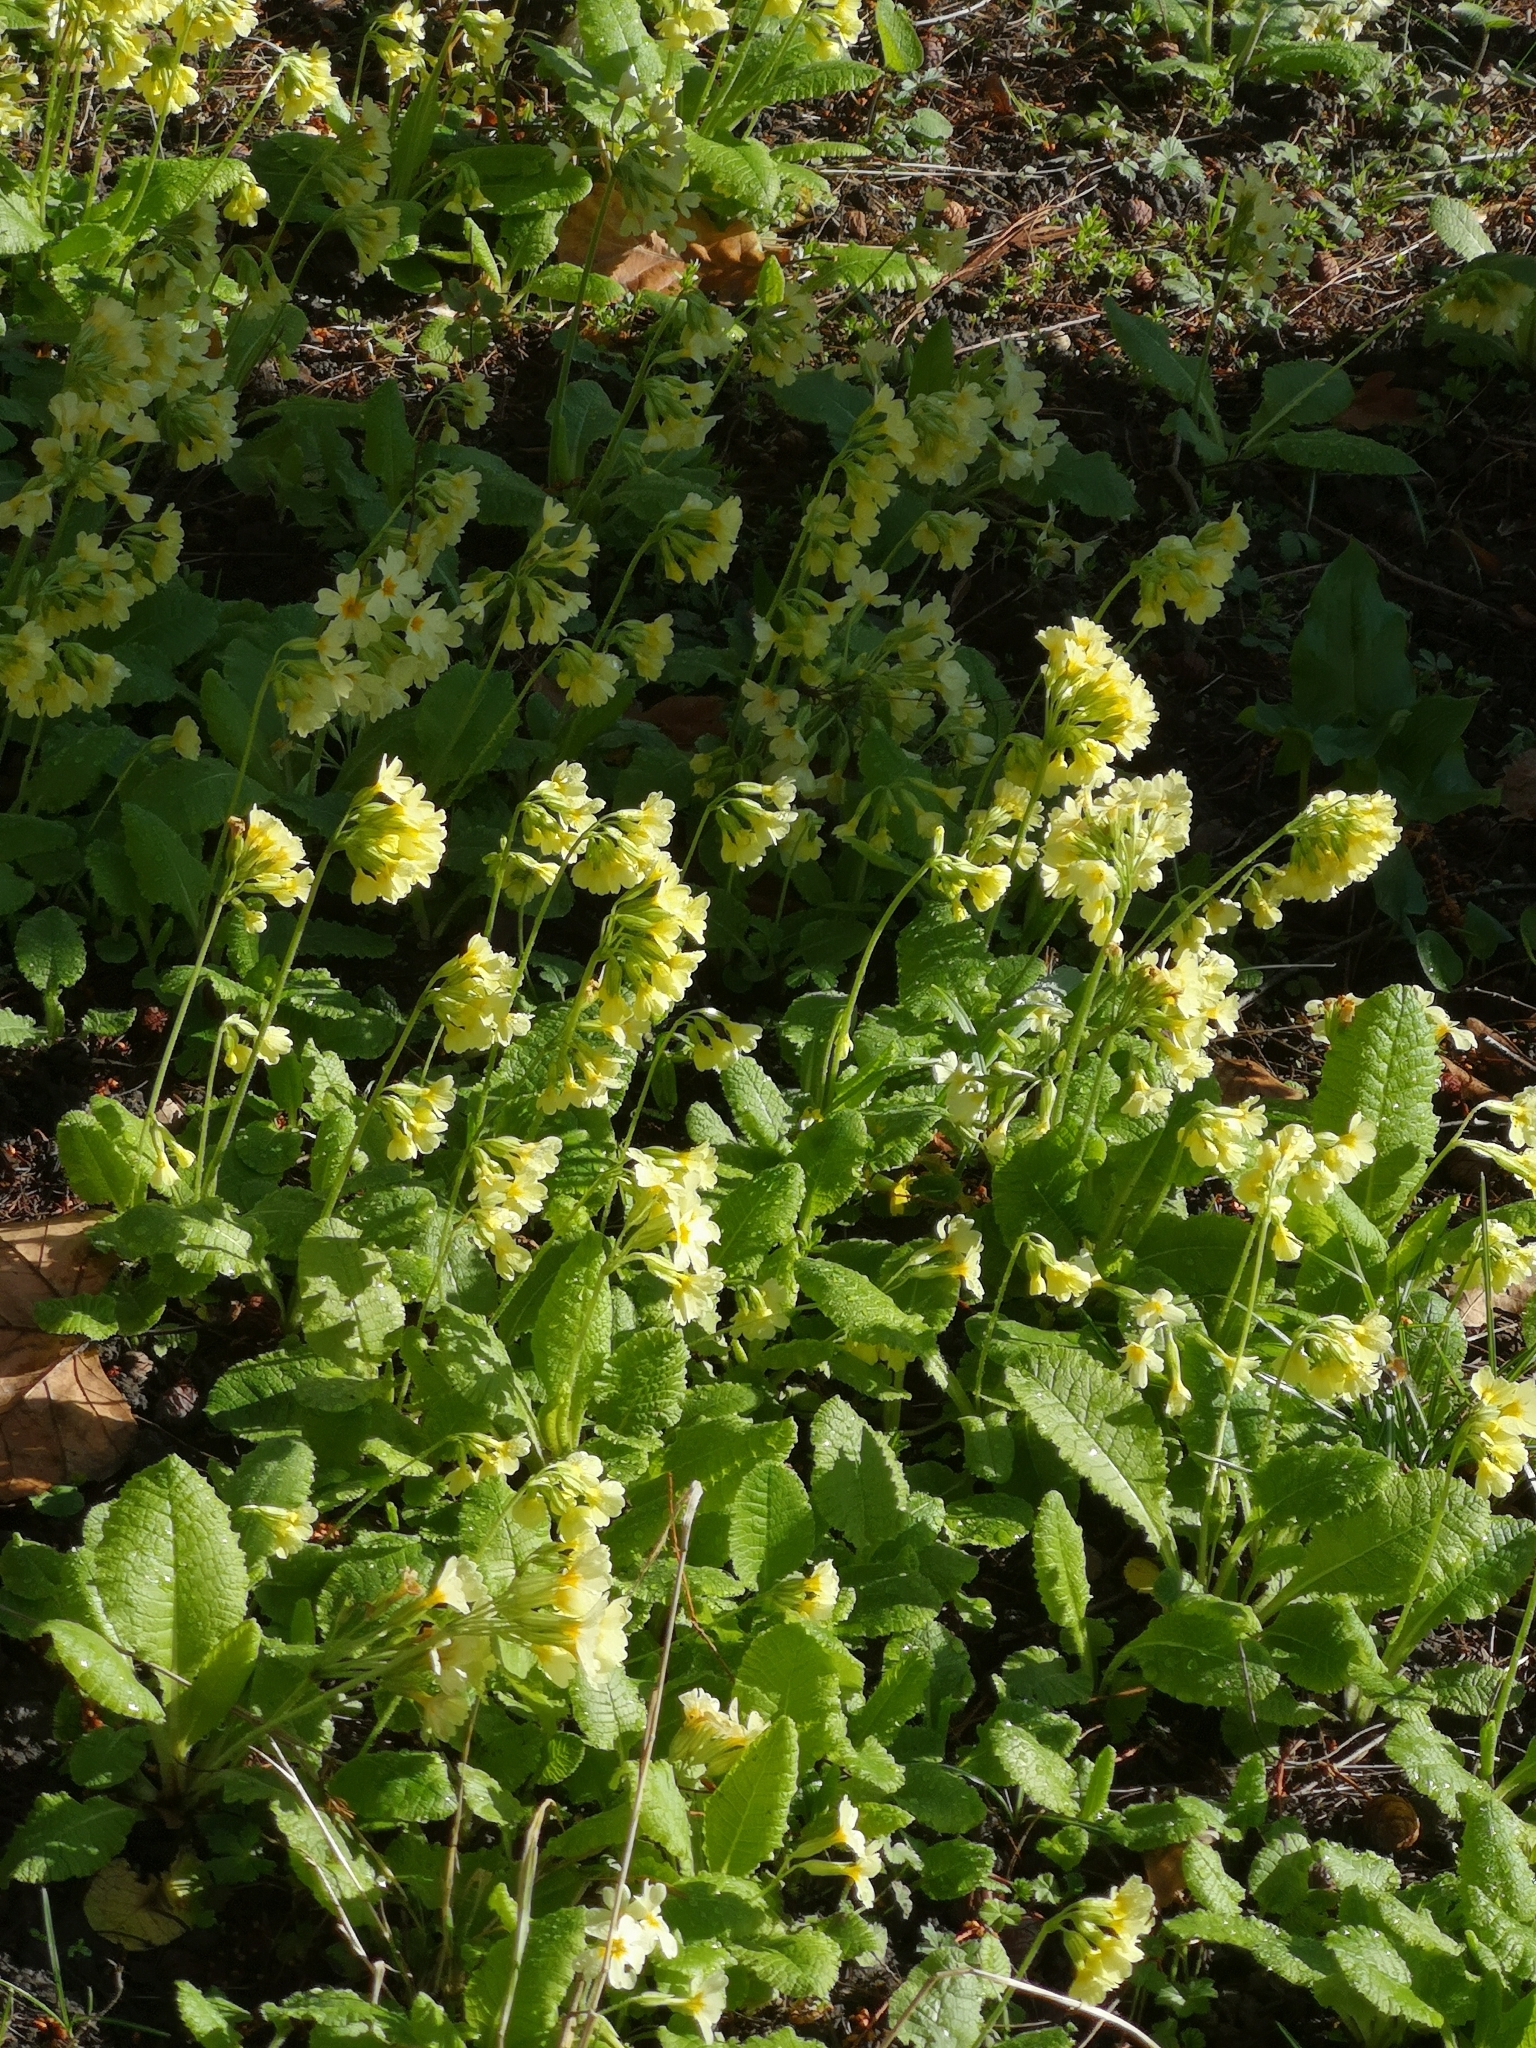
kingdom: Plantae
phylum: Tracheophyta
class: Magnoliopsida
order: Ericales
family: Primulaceae
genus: Primula
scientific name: Primula elatior
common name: Oxlip
